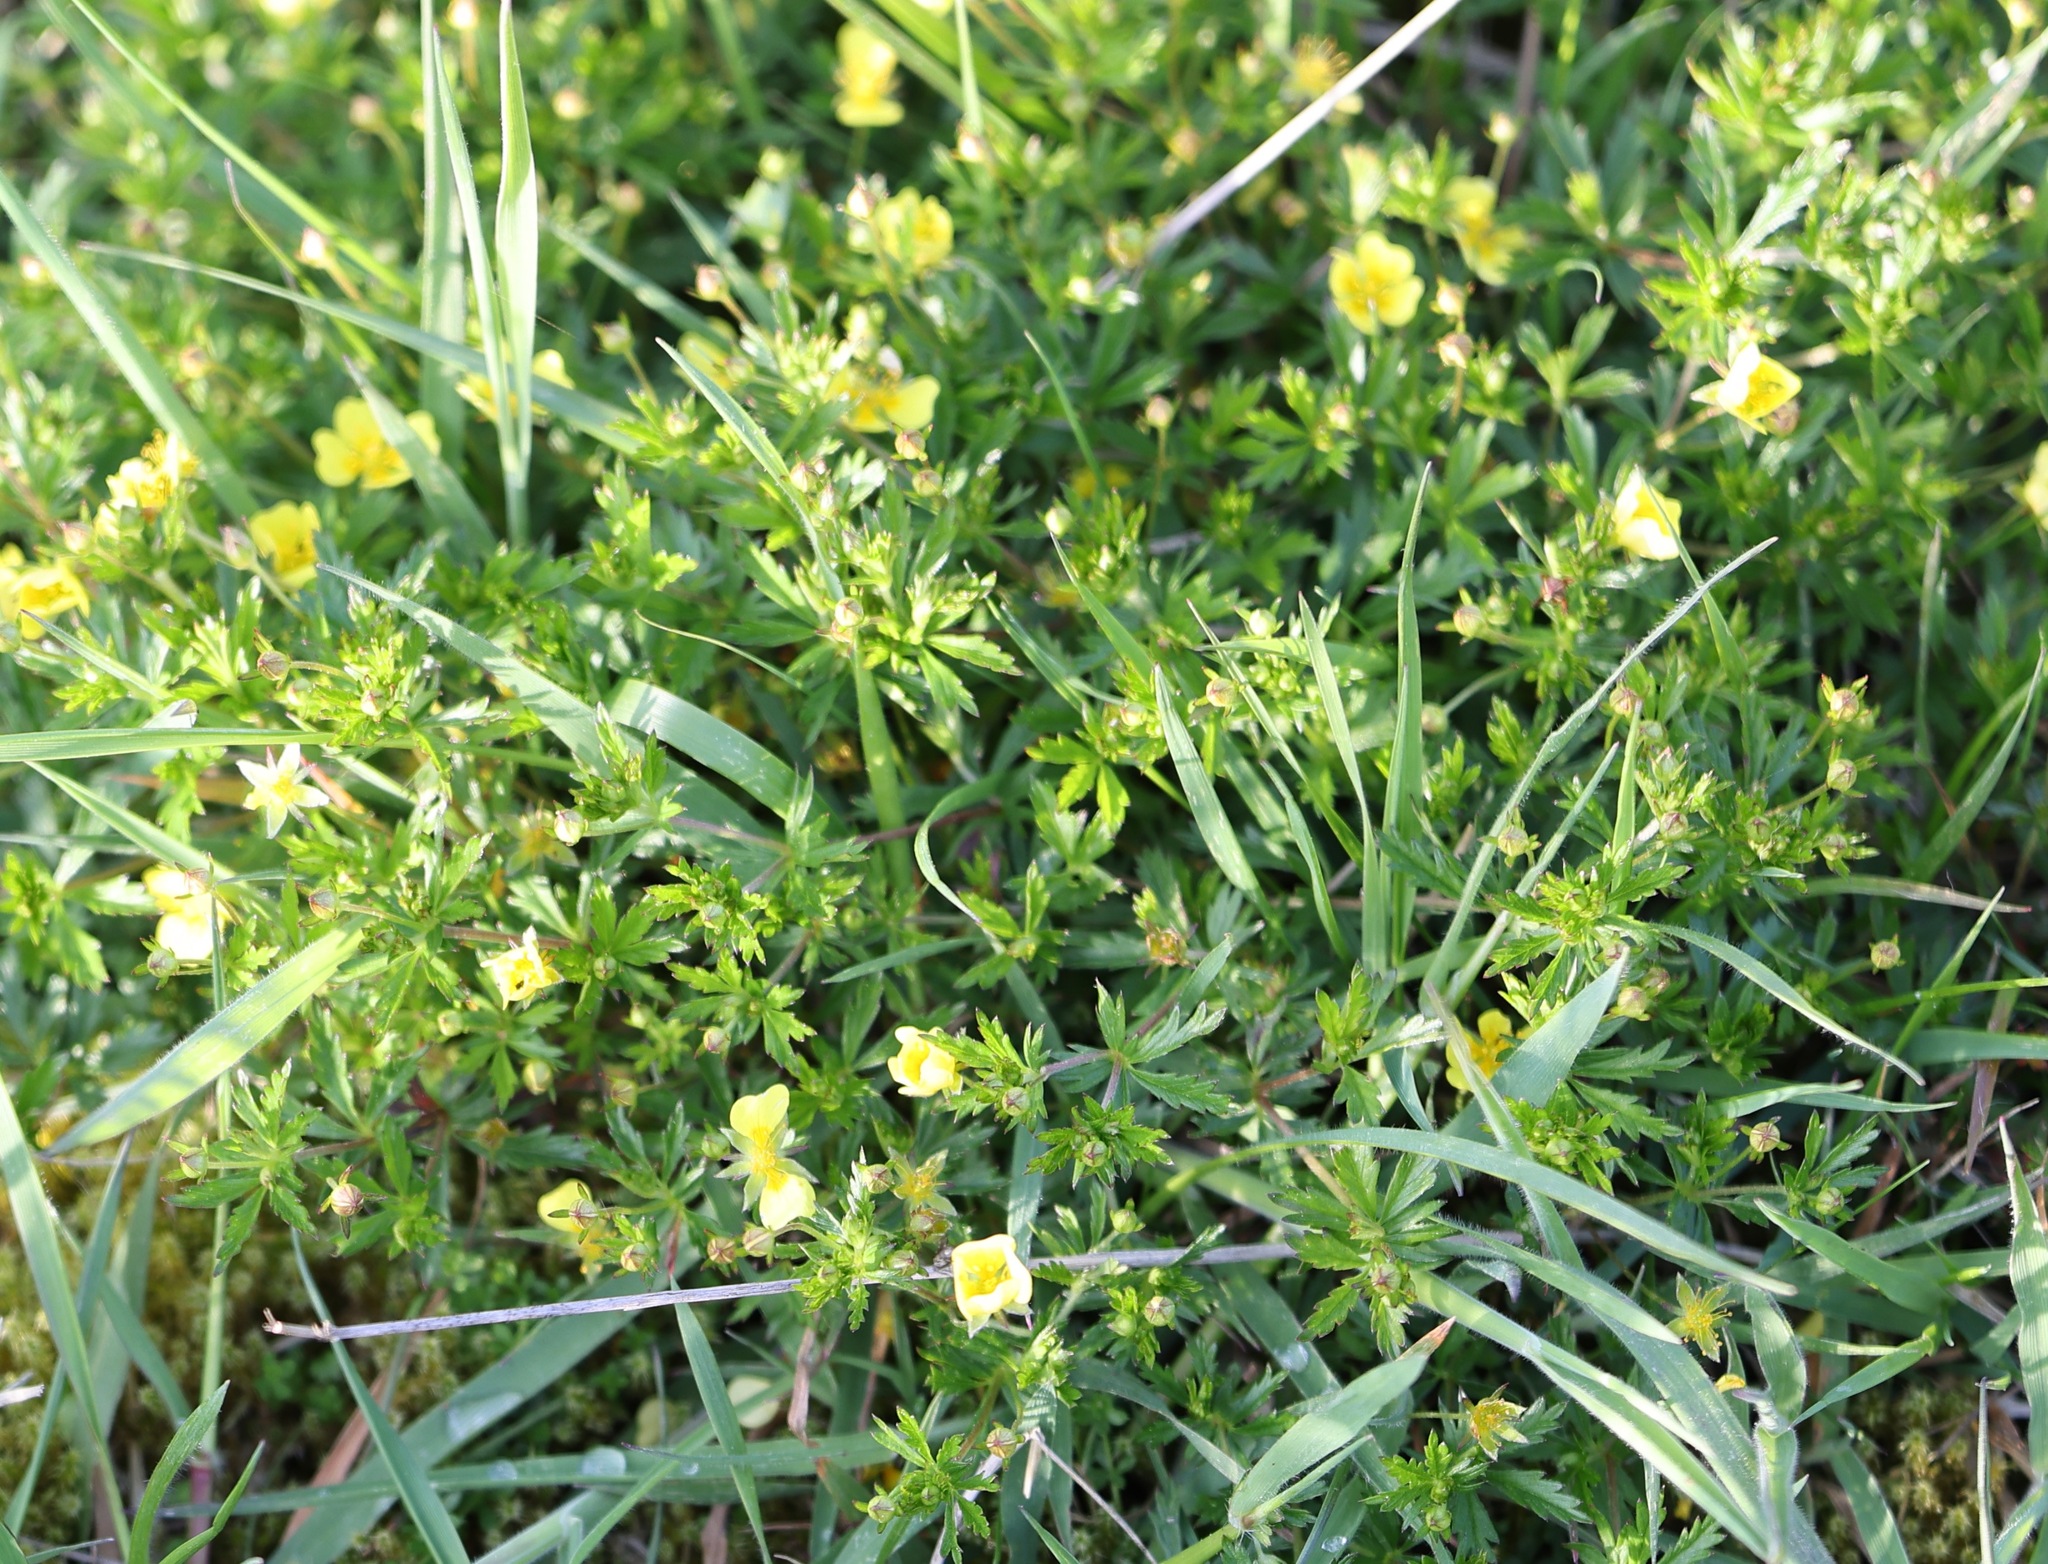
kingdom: Plantae
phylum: Tracheophyta
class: Magnoliopsida
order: Rosales
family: Rosaceae
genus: Potentilla
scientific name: Potentilla erecta
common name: Tormentil
